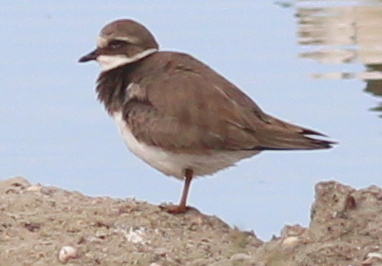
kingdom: Animalia
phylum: Chordata
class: Aves
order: Charadriiformes
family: Charadriidae
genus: Charadrius
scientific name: Charadrius hiaticula
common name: Common ringed plover
